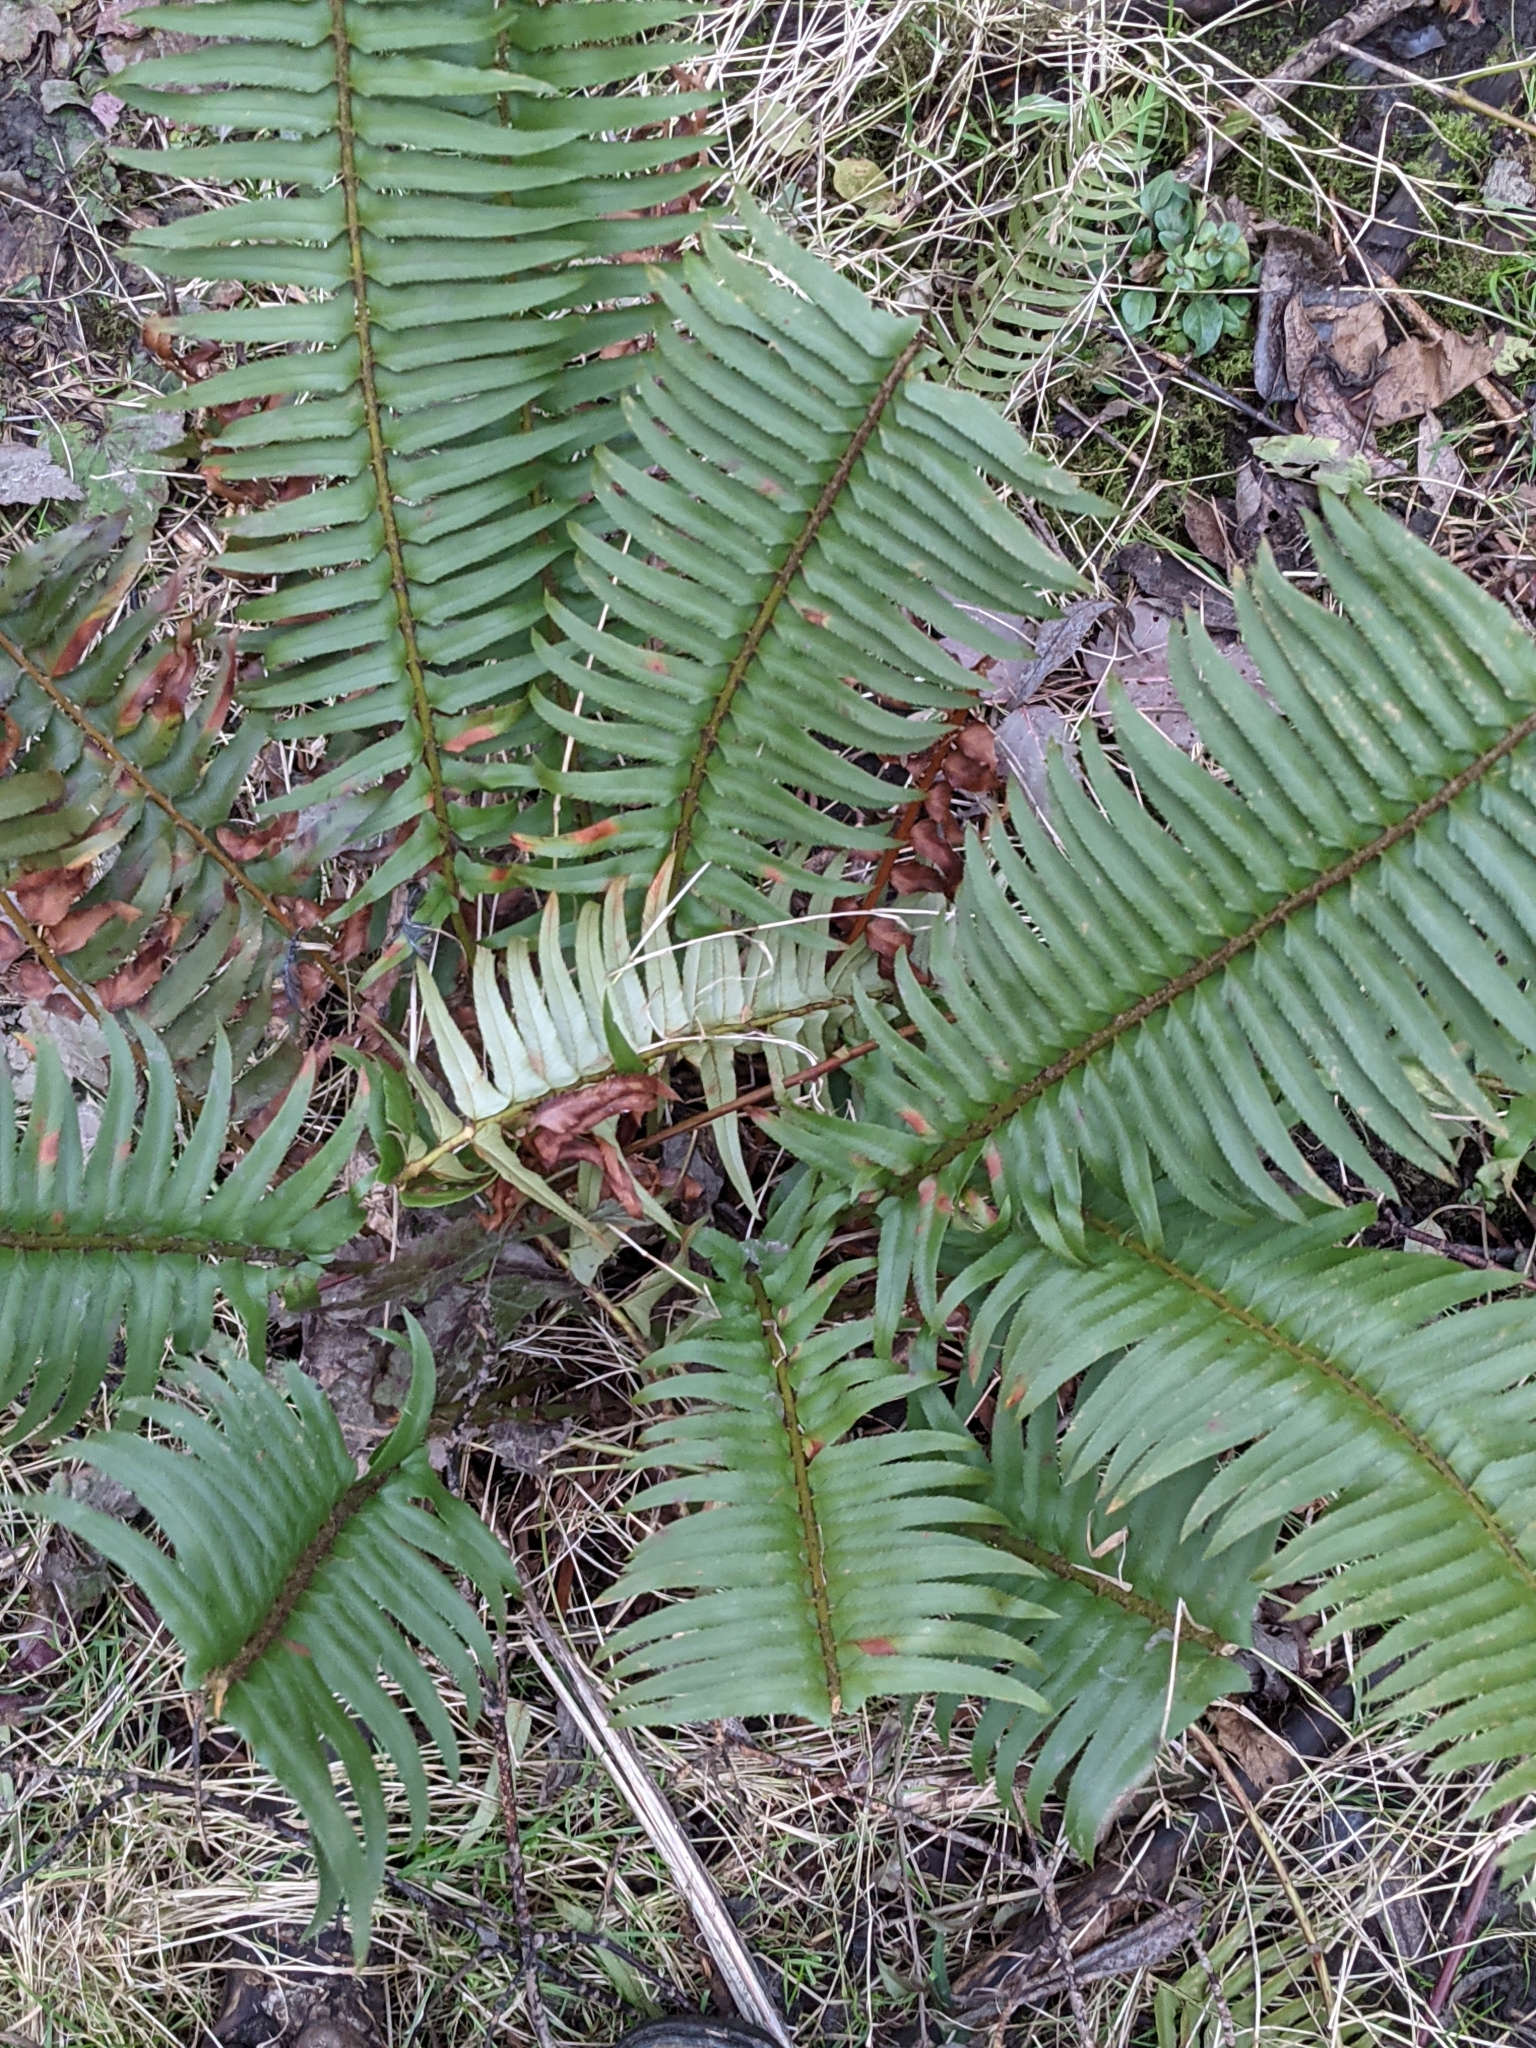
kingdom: Plantae
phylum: Tracheophyta
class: Polypodiopsida
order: Polypodiales
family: Dryopteridaceae
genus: Polystichum
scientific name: Polystichum munitum
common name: Western sword-fern
